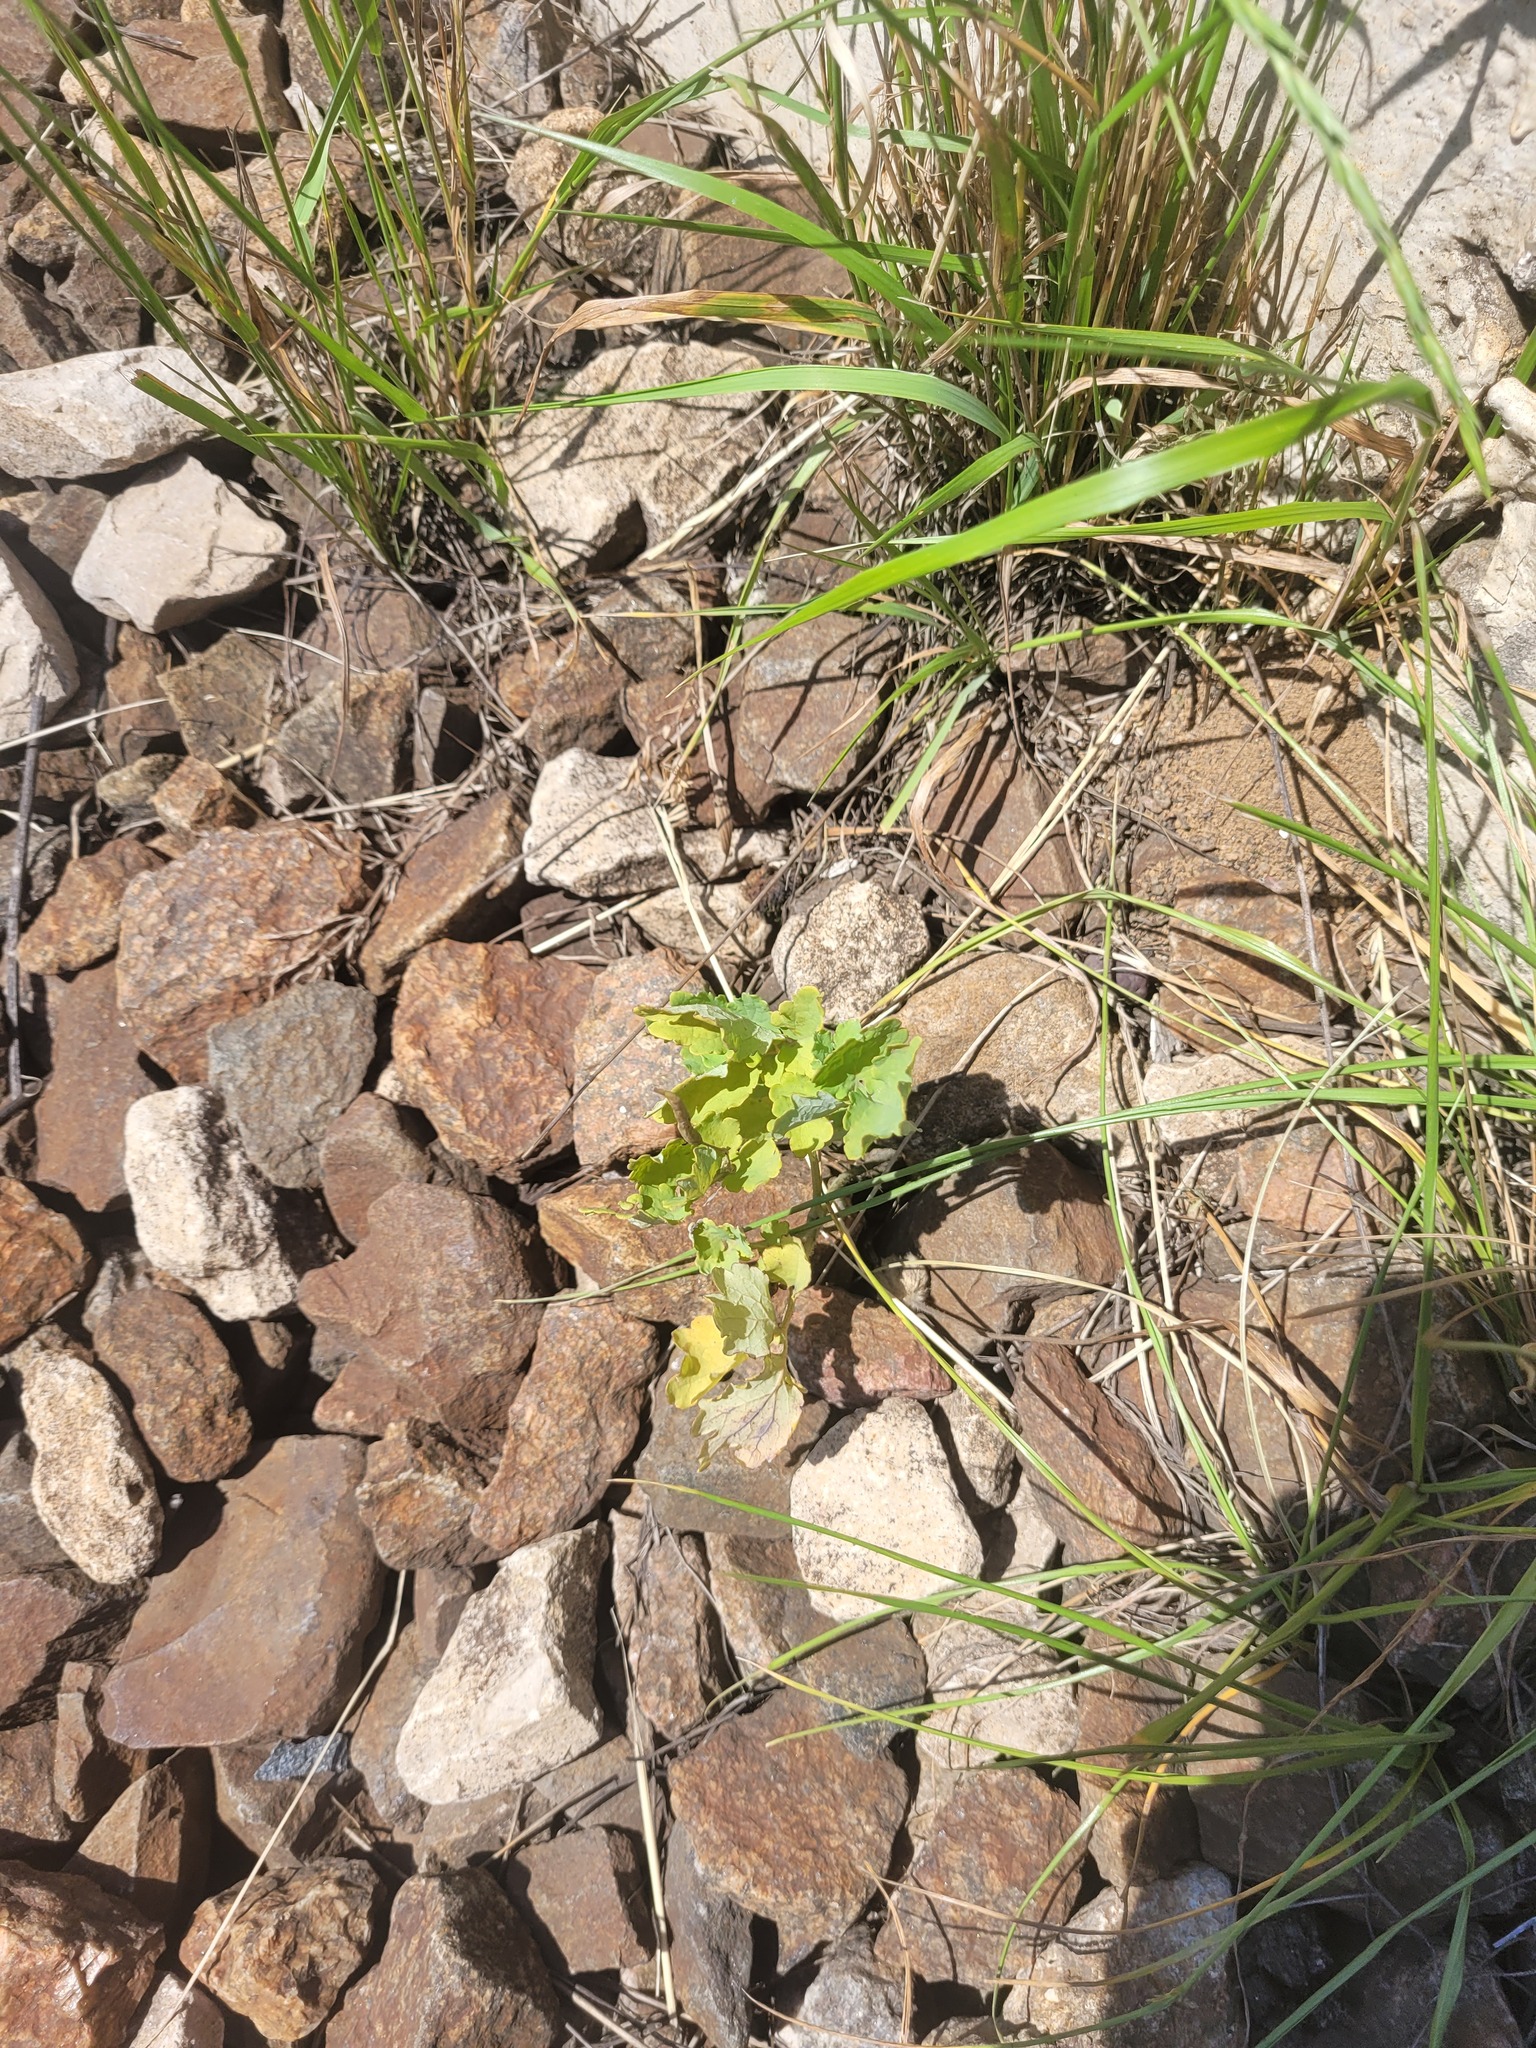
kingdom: Plantae
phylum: Tracheophyta
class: Magnoliopsida
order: Ranunculales
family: Papaveraceae
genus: Chelidonium
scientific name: Chelidonium majus
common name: Greater celandine
